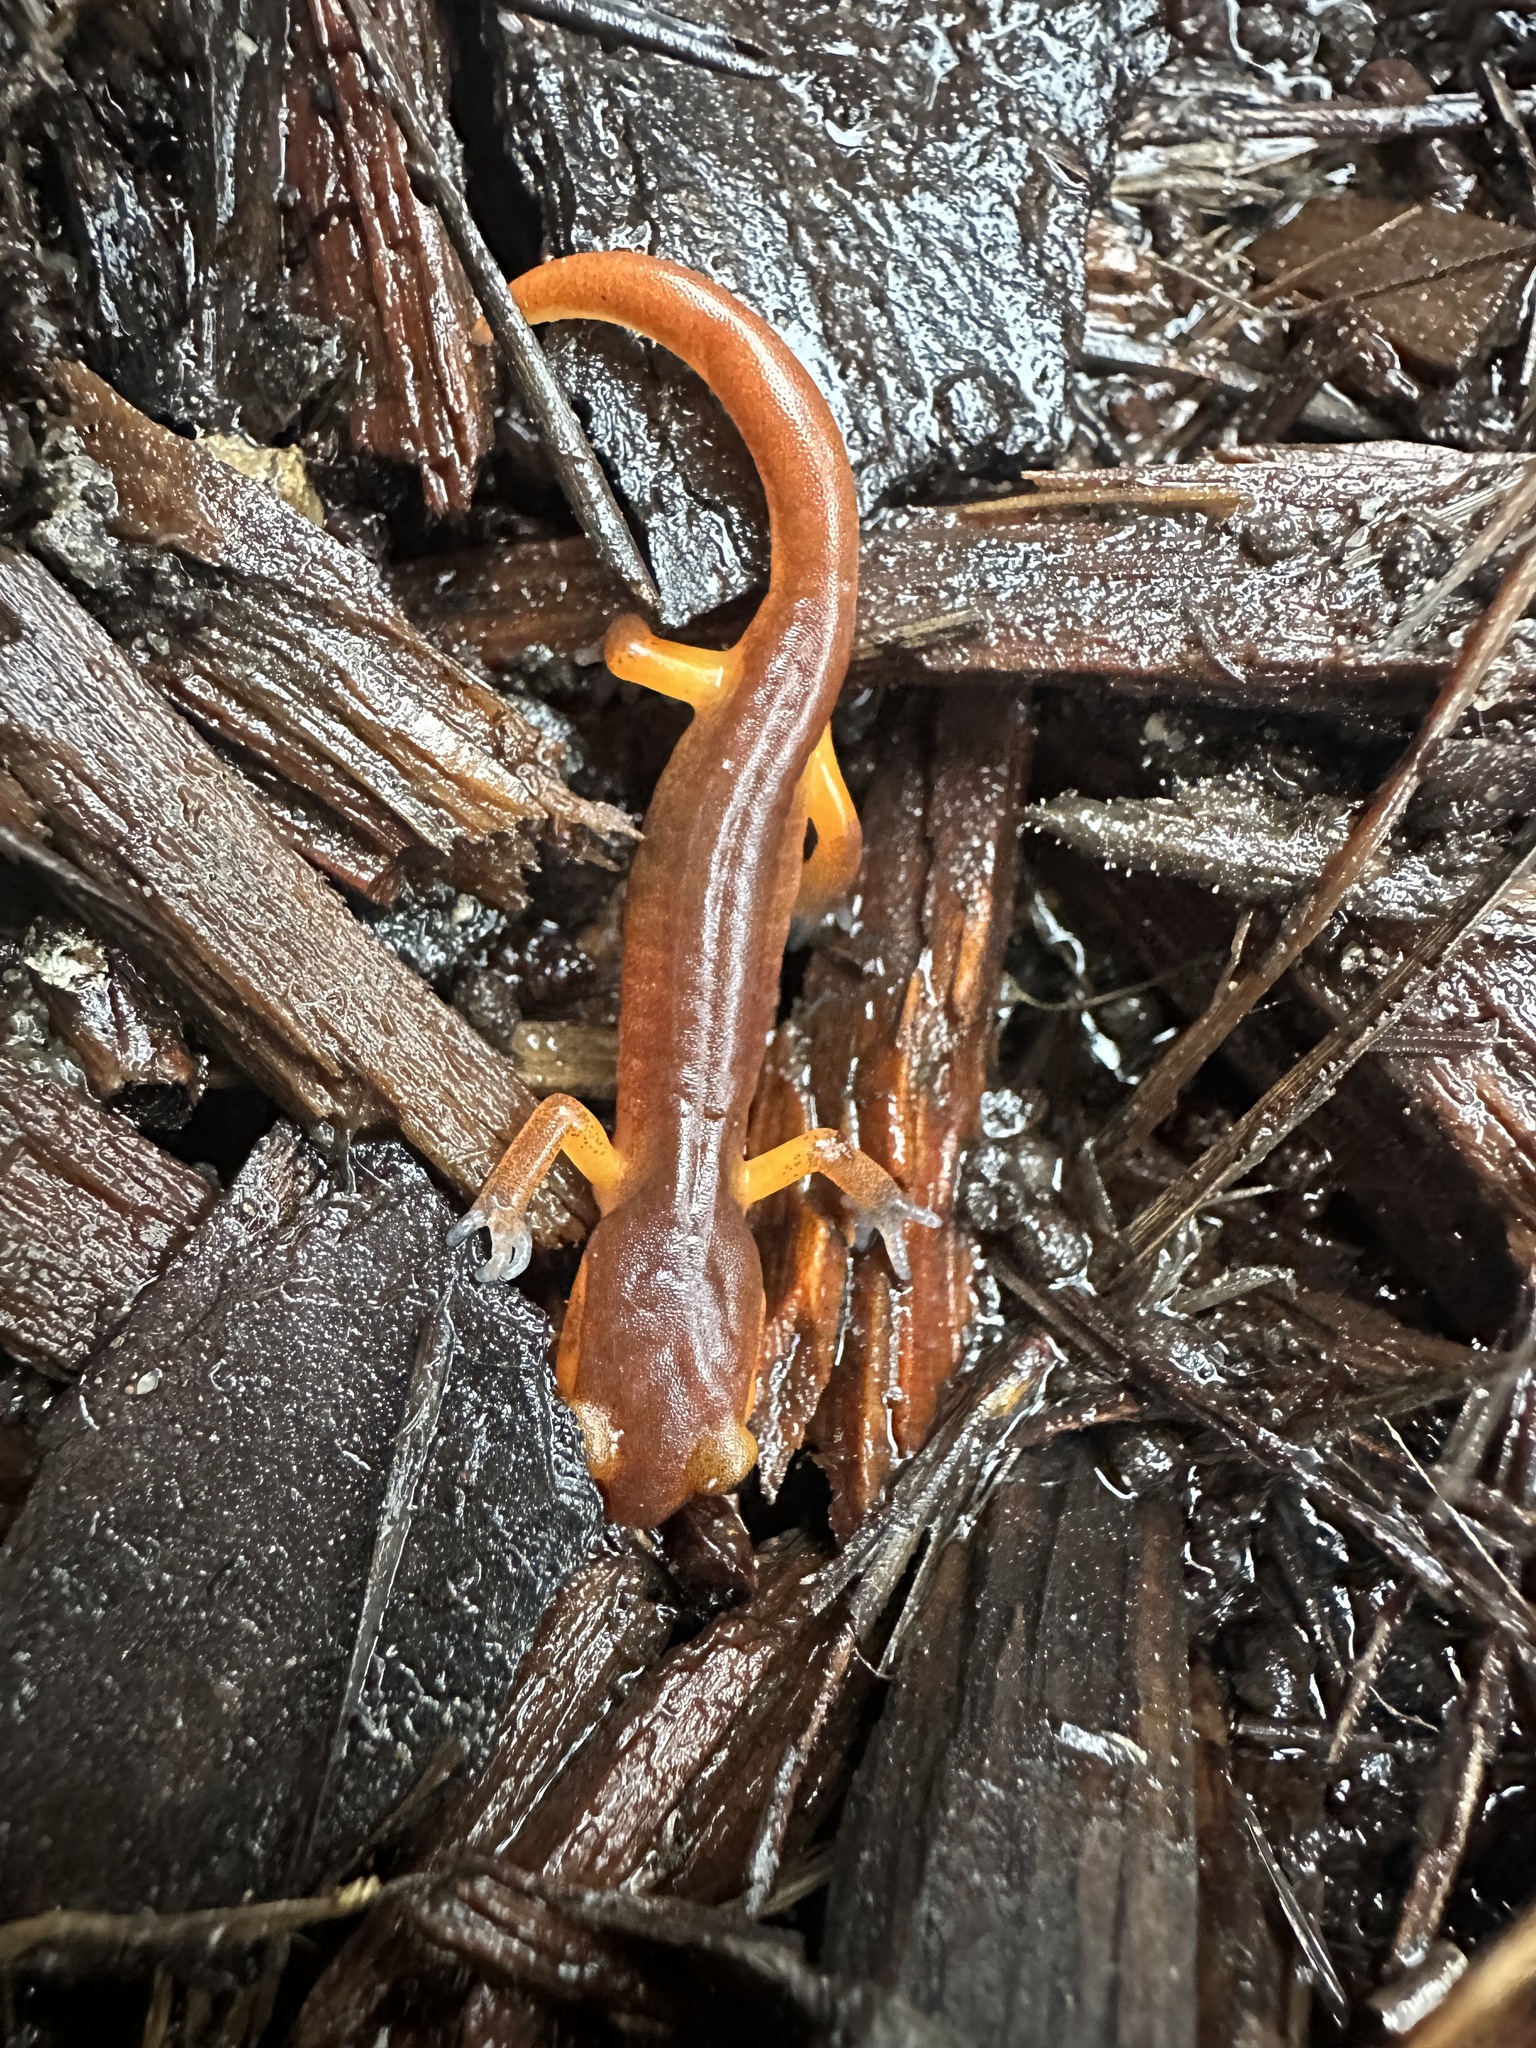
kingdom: Animalia
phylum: Chordata
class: Amphibia
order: Caudata
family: Plethodontidae
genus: Ensatina
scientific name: Ensatina eschscholtzii
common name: Ensatina
